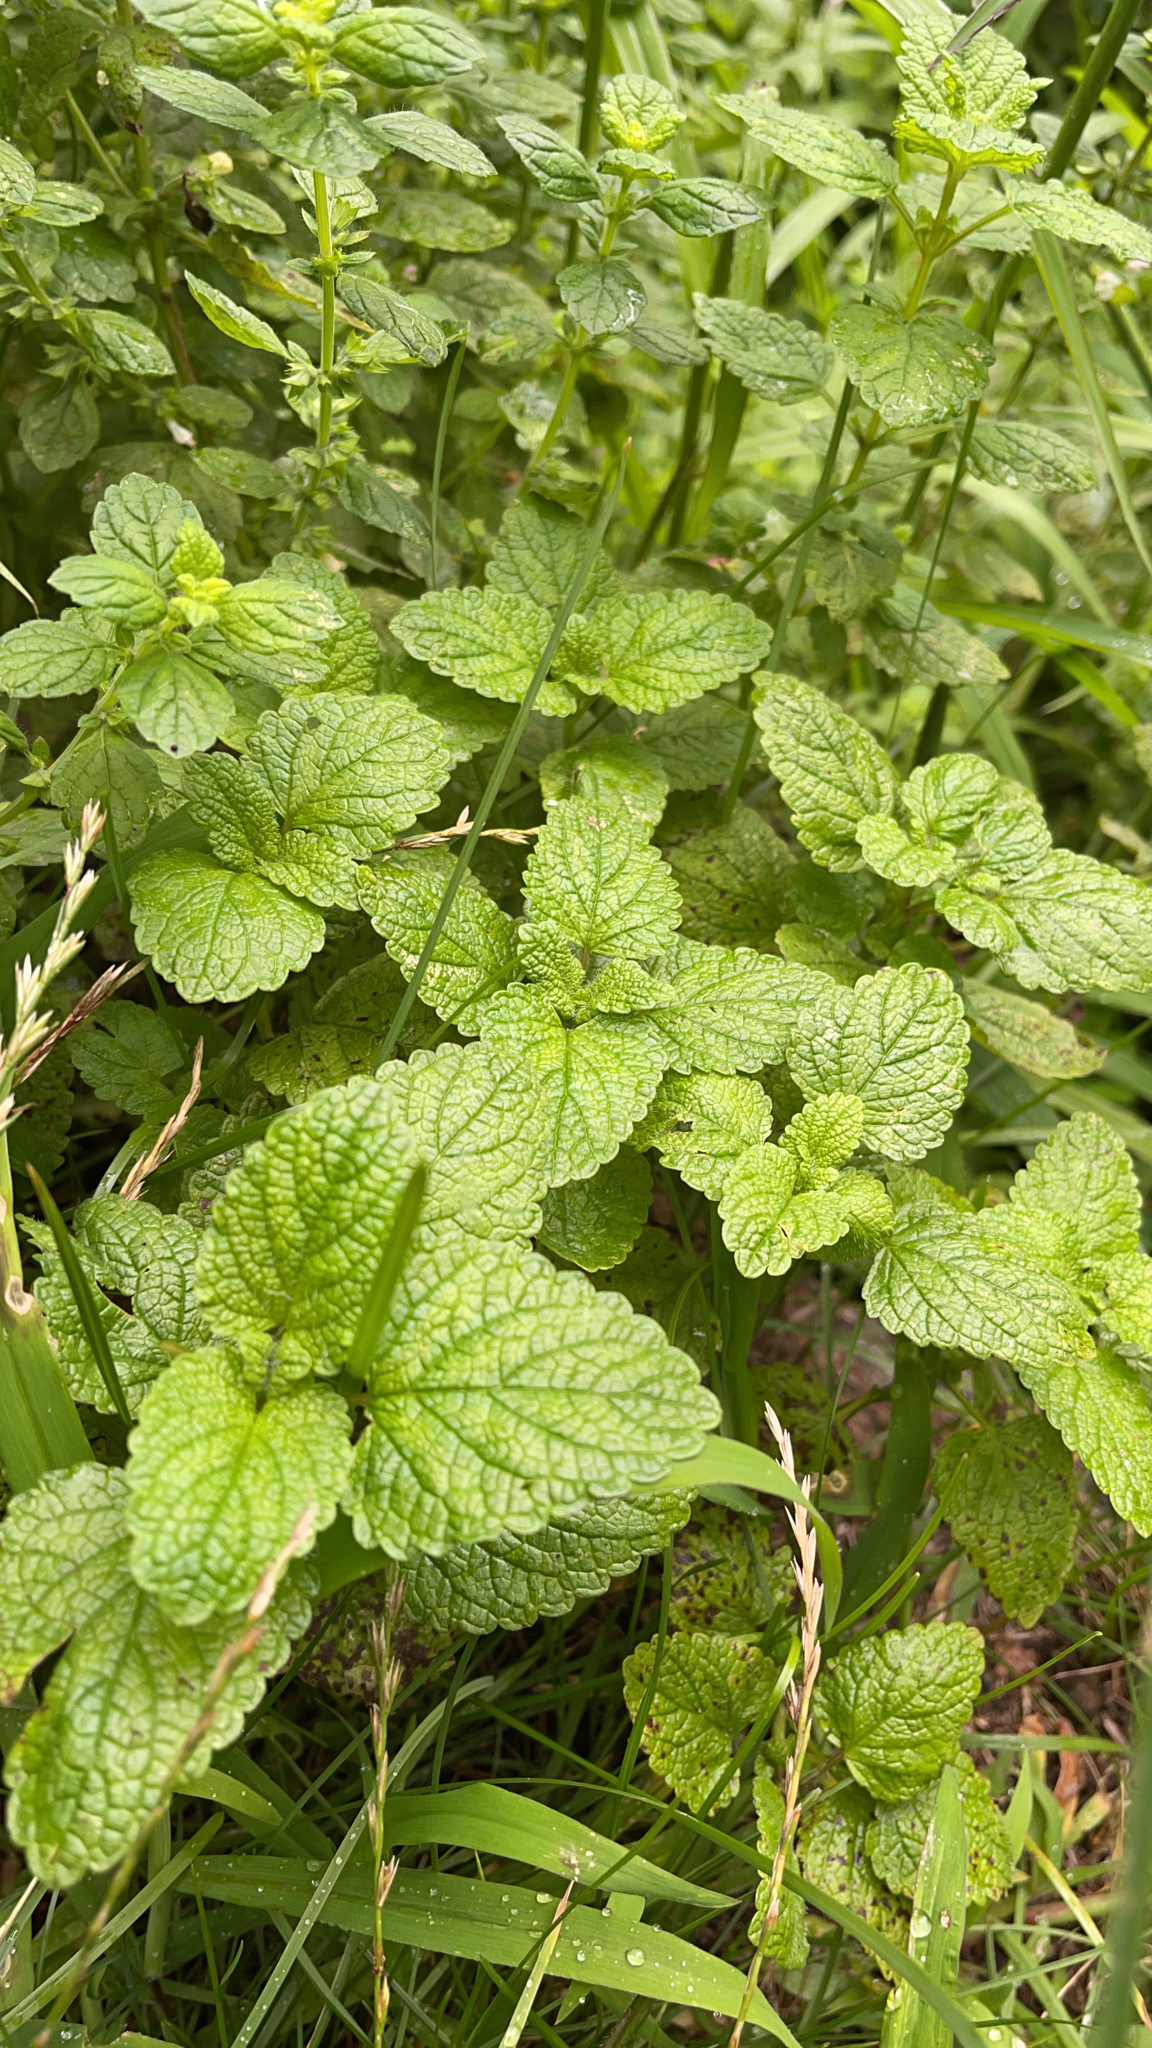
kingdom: Plantae
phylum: Tracheophyta
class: Magnoliopsida
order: Lamiales
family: Lamiaceae
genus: Melissa
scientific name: Melissa officinalis
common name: Balm
